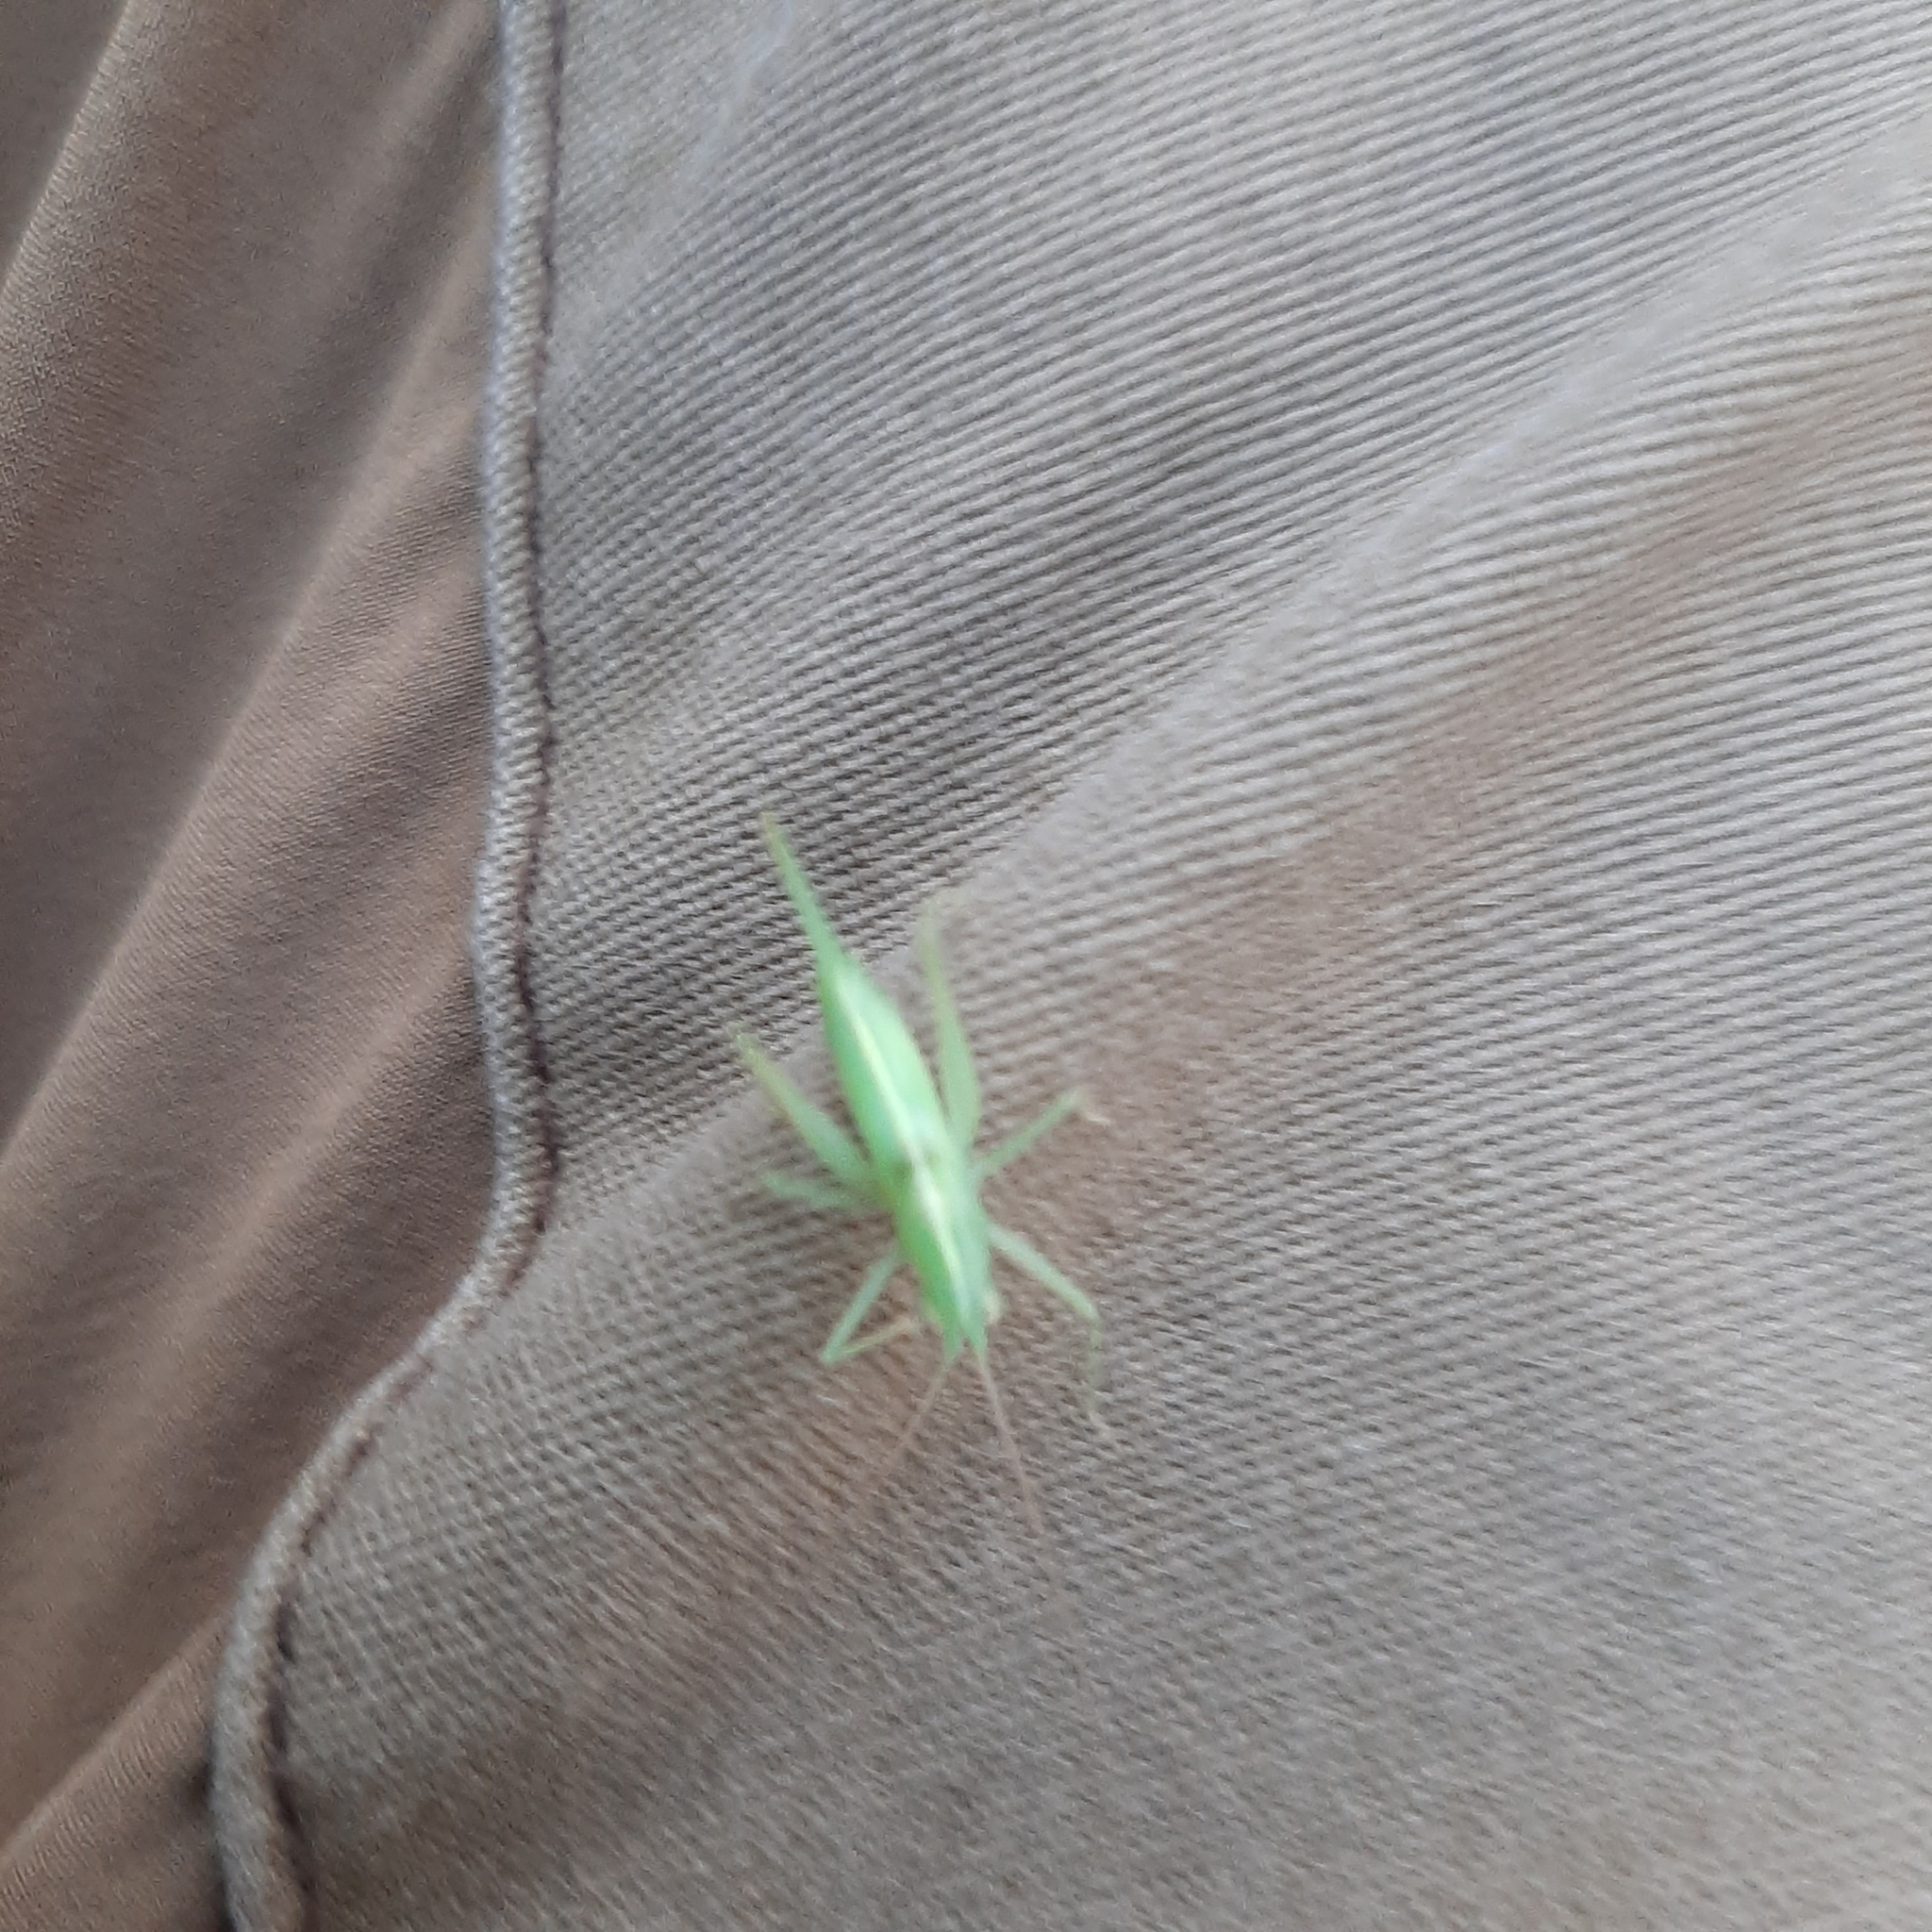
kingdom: Animalia
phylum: Arthropoda
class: Insecta
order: Orthoptera
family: Tettigoniidae
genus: Meconema
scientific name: Meconema meridionale
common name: Southern oak bush-cricket
